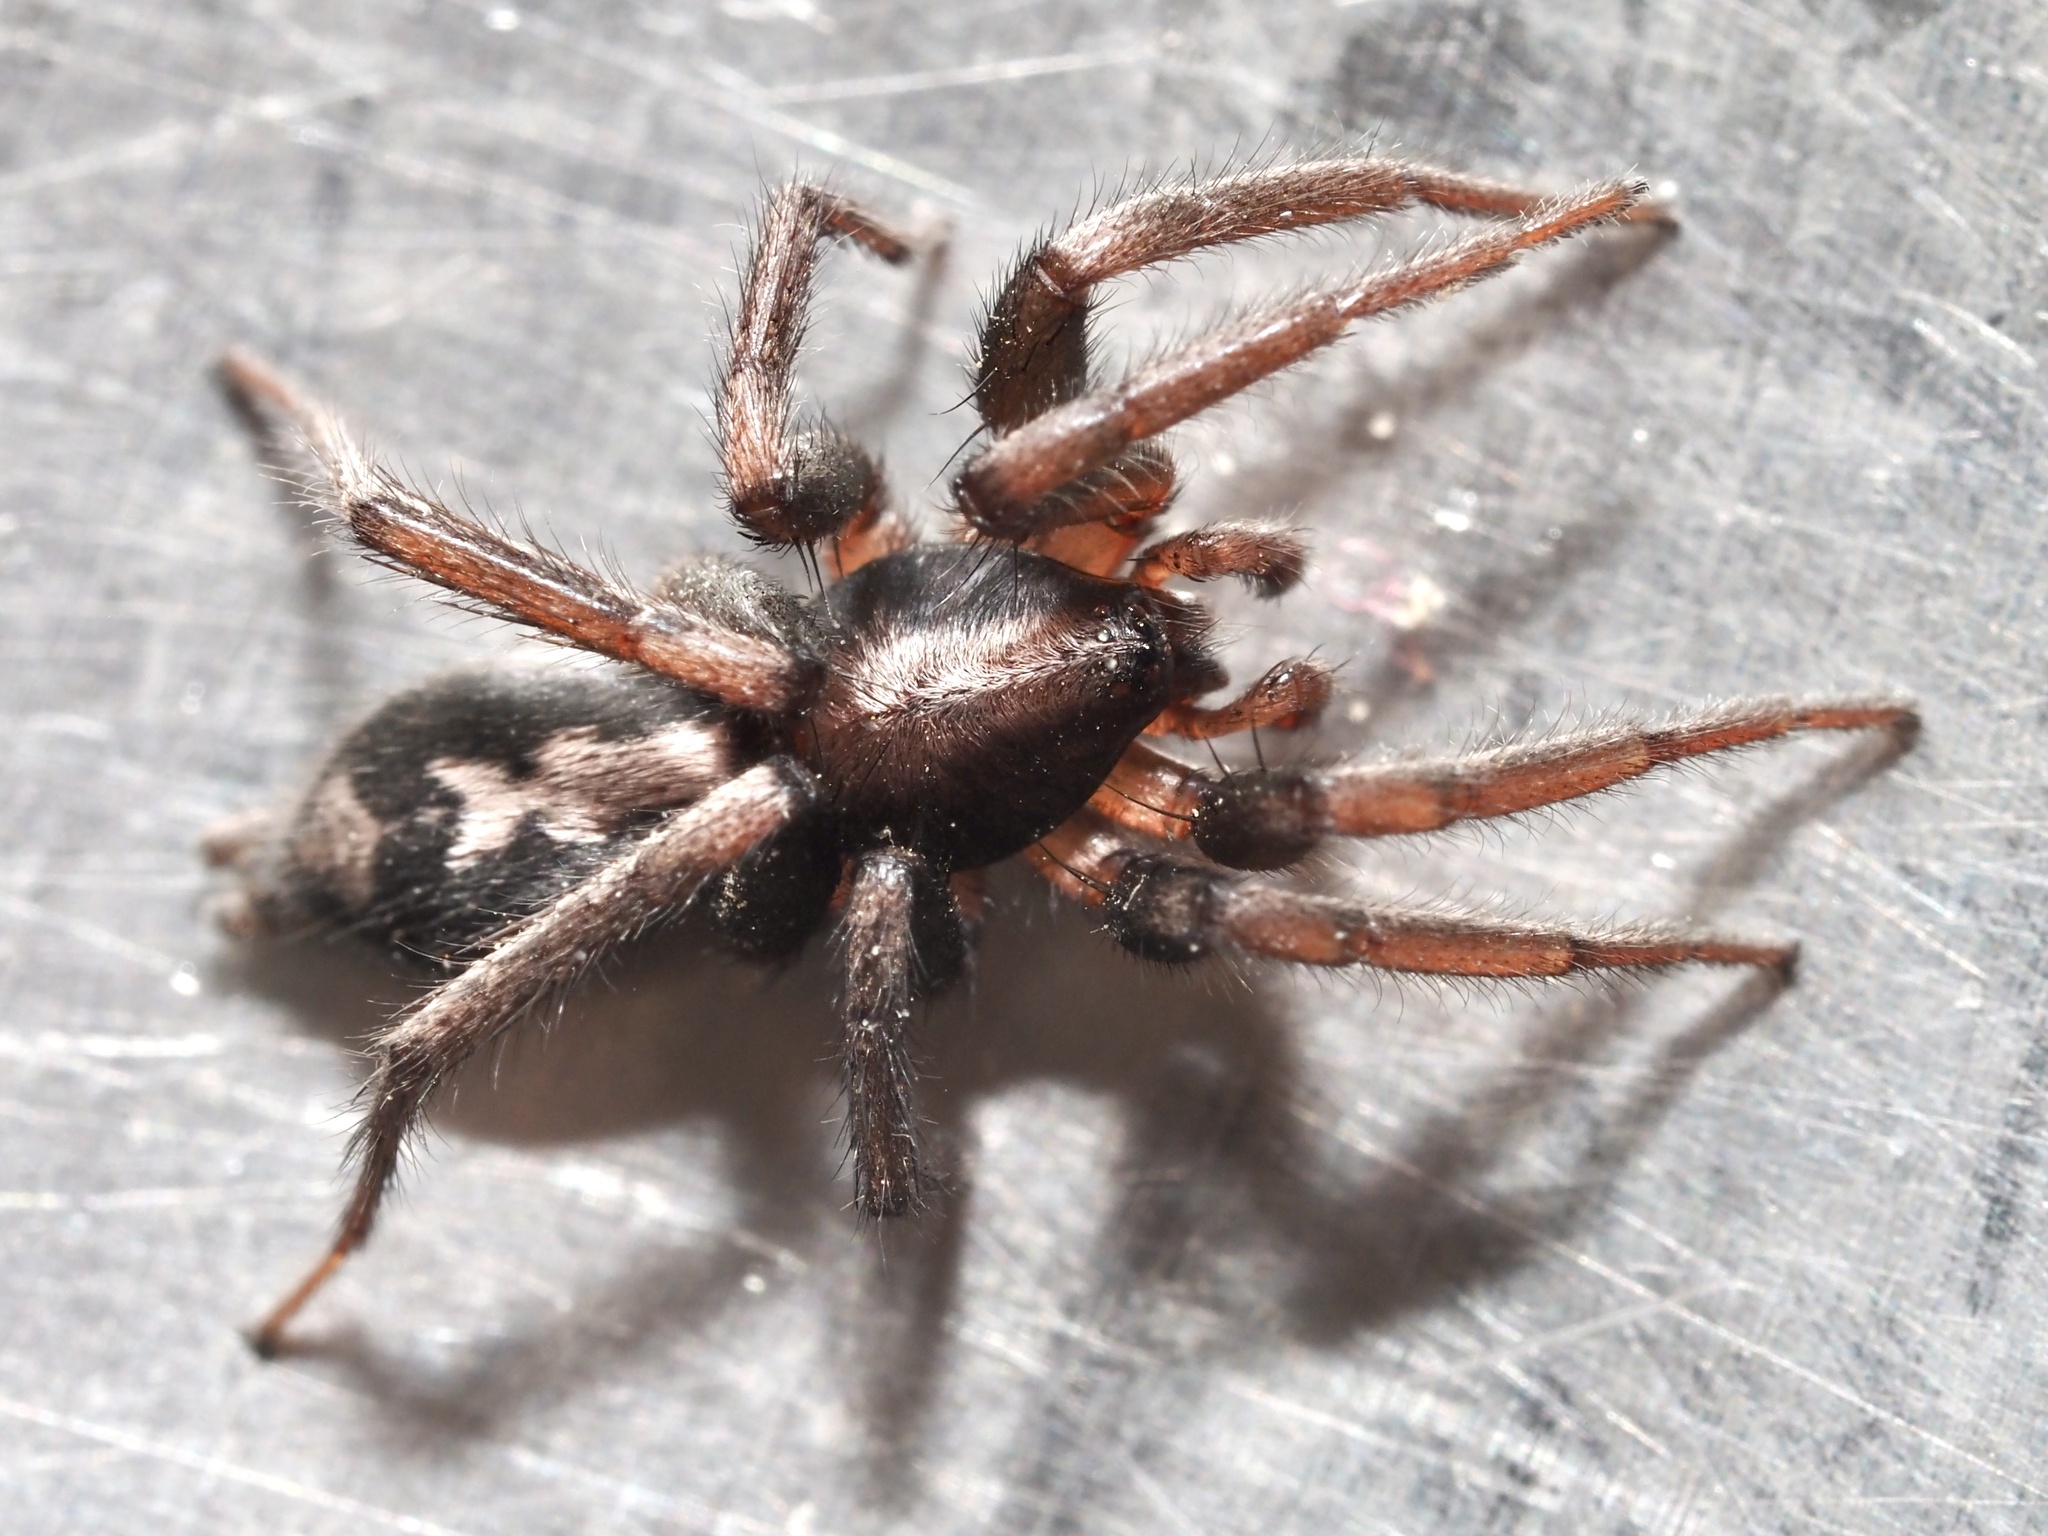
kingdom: Animalia
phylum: Arthropoda
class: Arachnida
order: Araneae
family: Gnaphosidae
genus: Herpyllus
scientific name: Herpyllus ecclesiasticus
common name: Eastern parson spider
